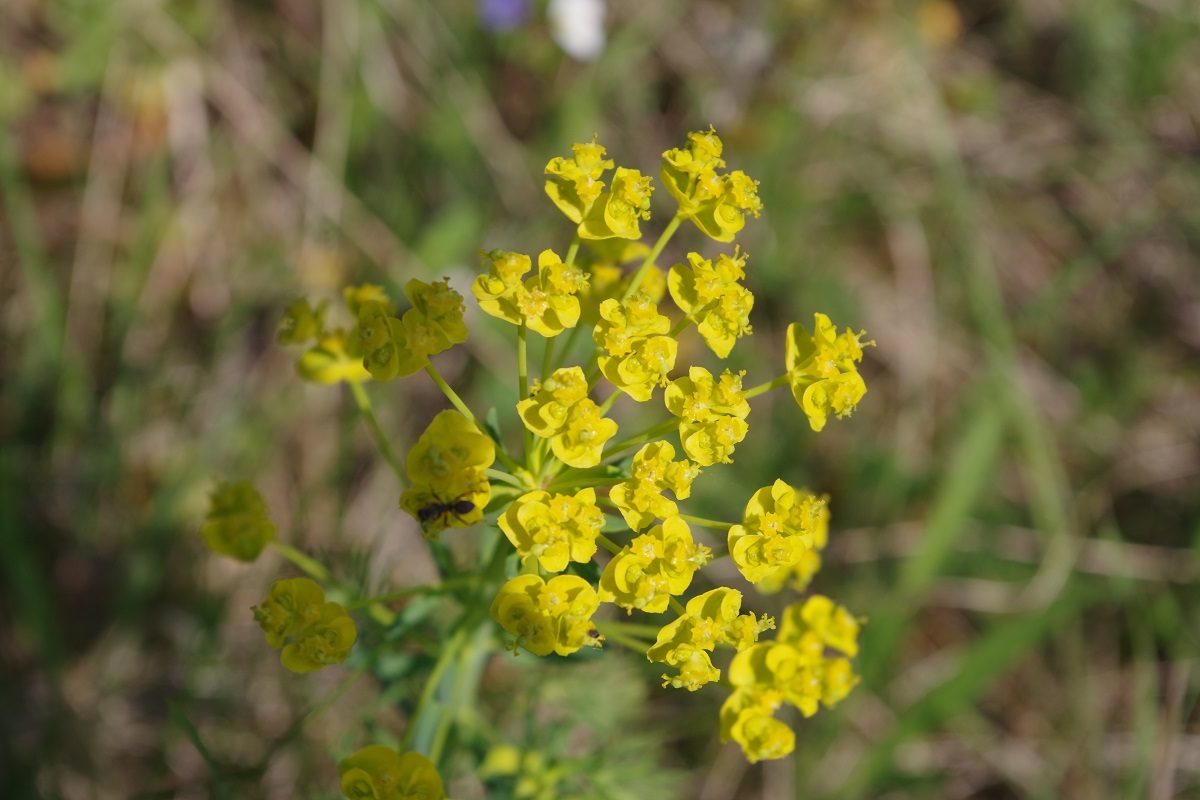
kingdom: Plantae
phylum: Tracheophyta
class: Magnoliopsida
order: Malpighiales
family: Euphorbiaceae
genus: Euphorbia
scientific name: Euphorbia cyparissias
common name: Cypress spurge
